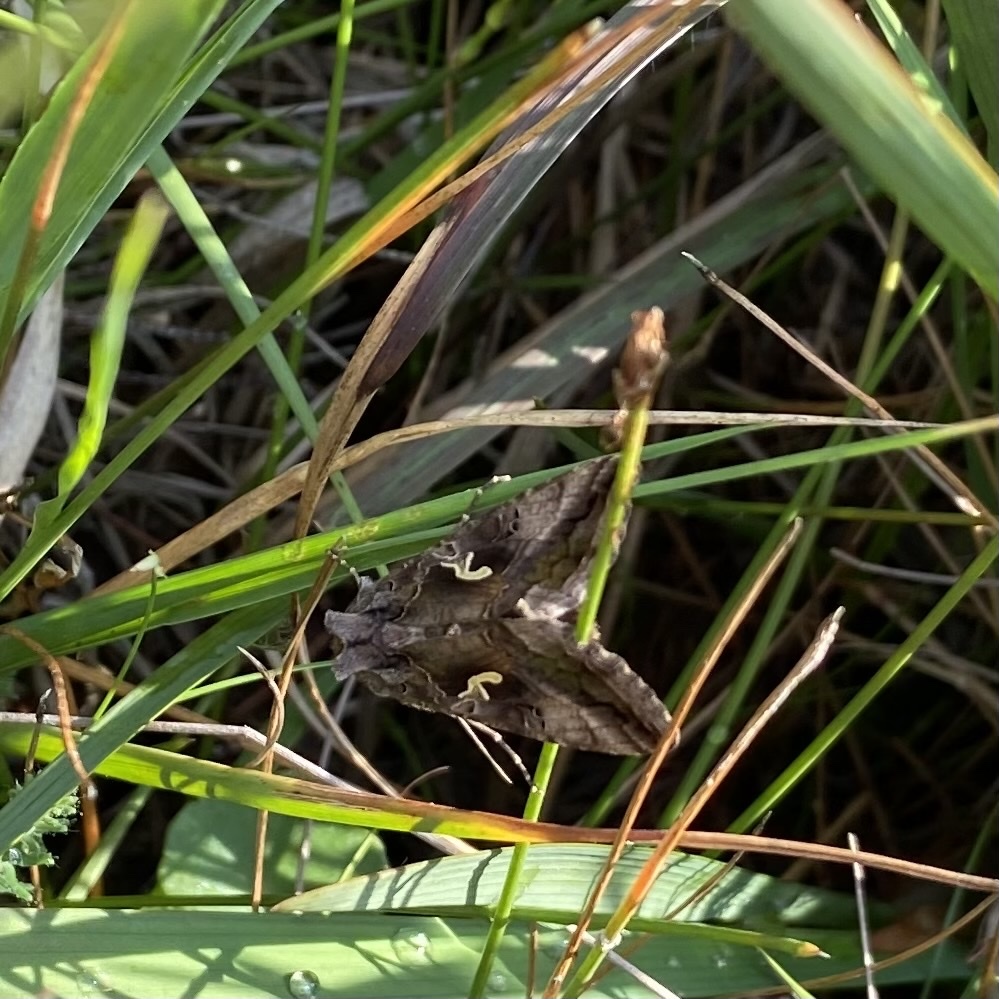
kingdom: Animalia
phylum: Arthropoda
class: Insecta
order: Lepidoptera
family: Noctuidae
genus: Autographa
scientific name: Autographa gamma
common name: Silver y
